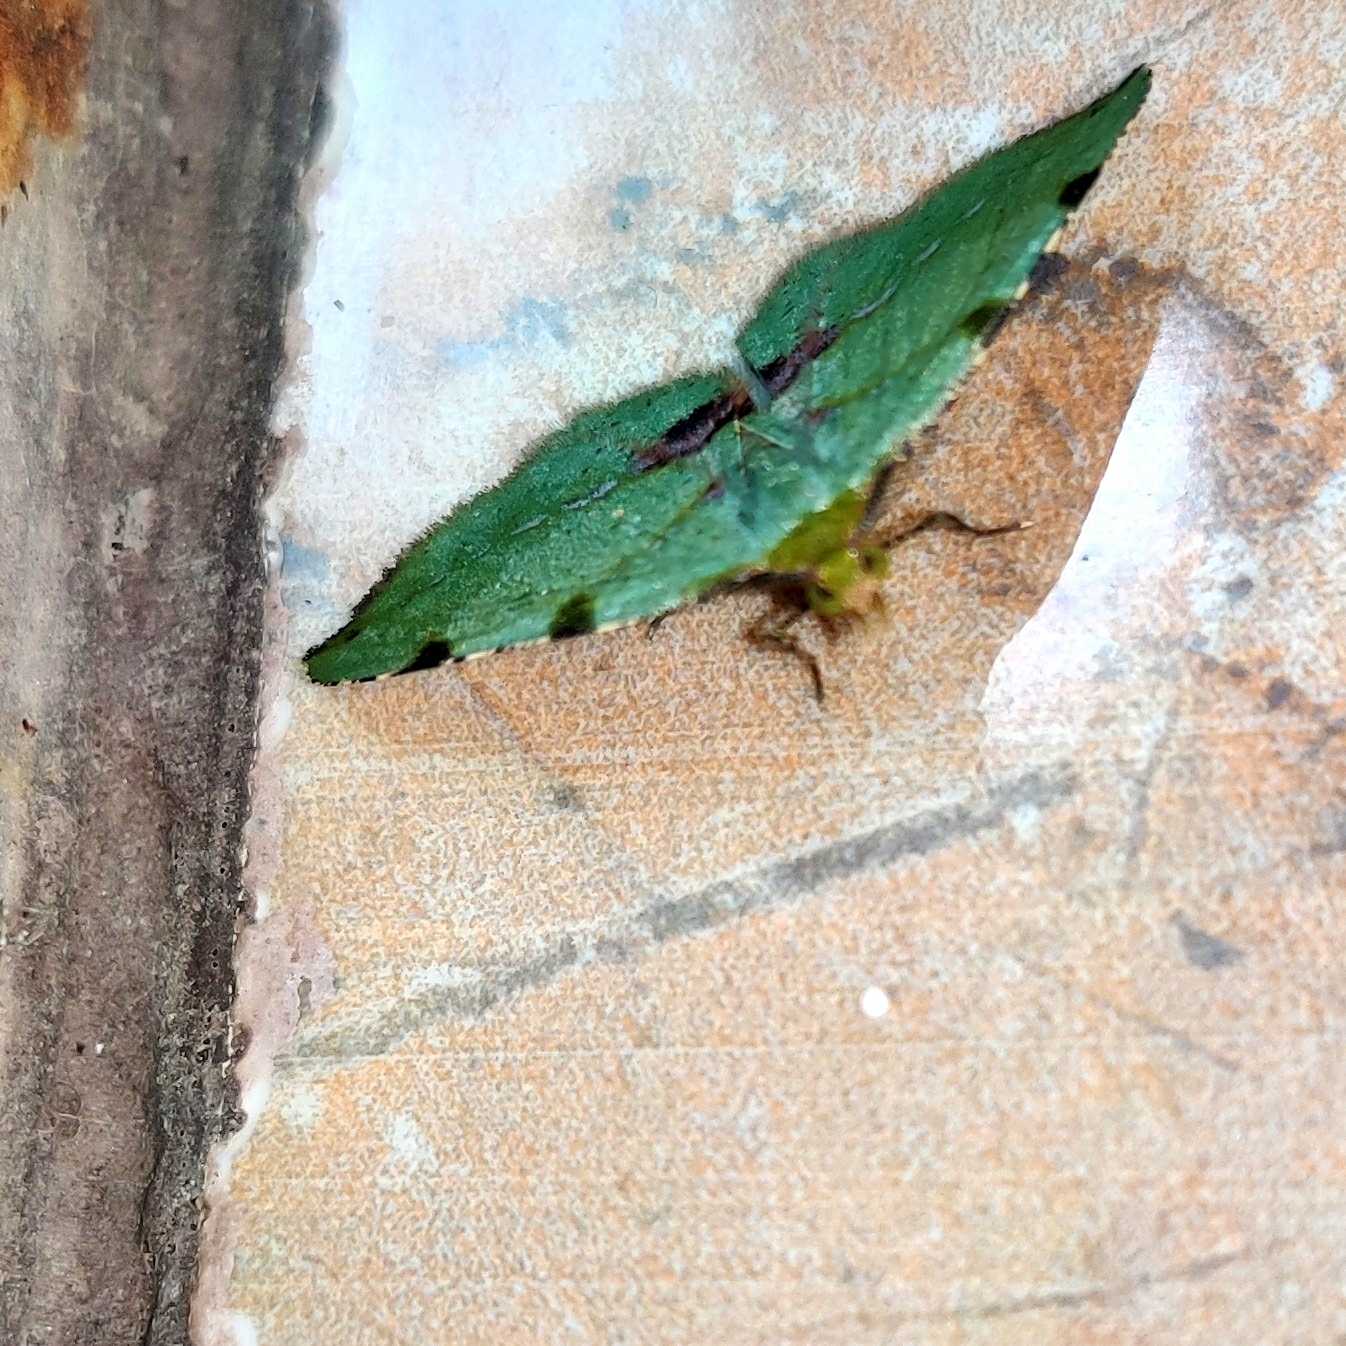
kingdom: Animalia
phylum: Arthropoda
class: Insecta
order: Lepidoptera
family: Geometridae
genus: Apoheterolocha
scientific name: Apoheterolocha patalata
